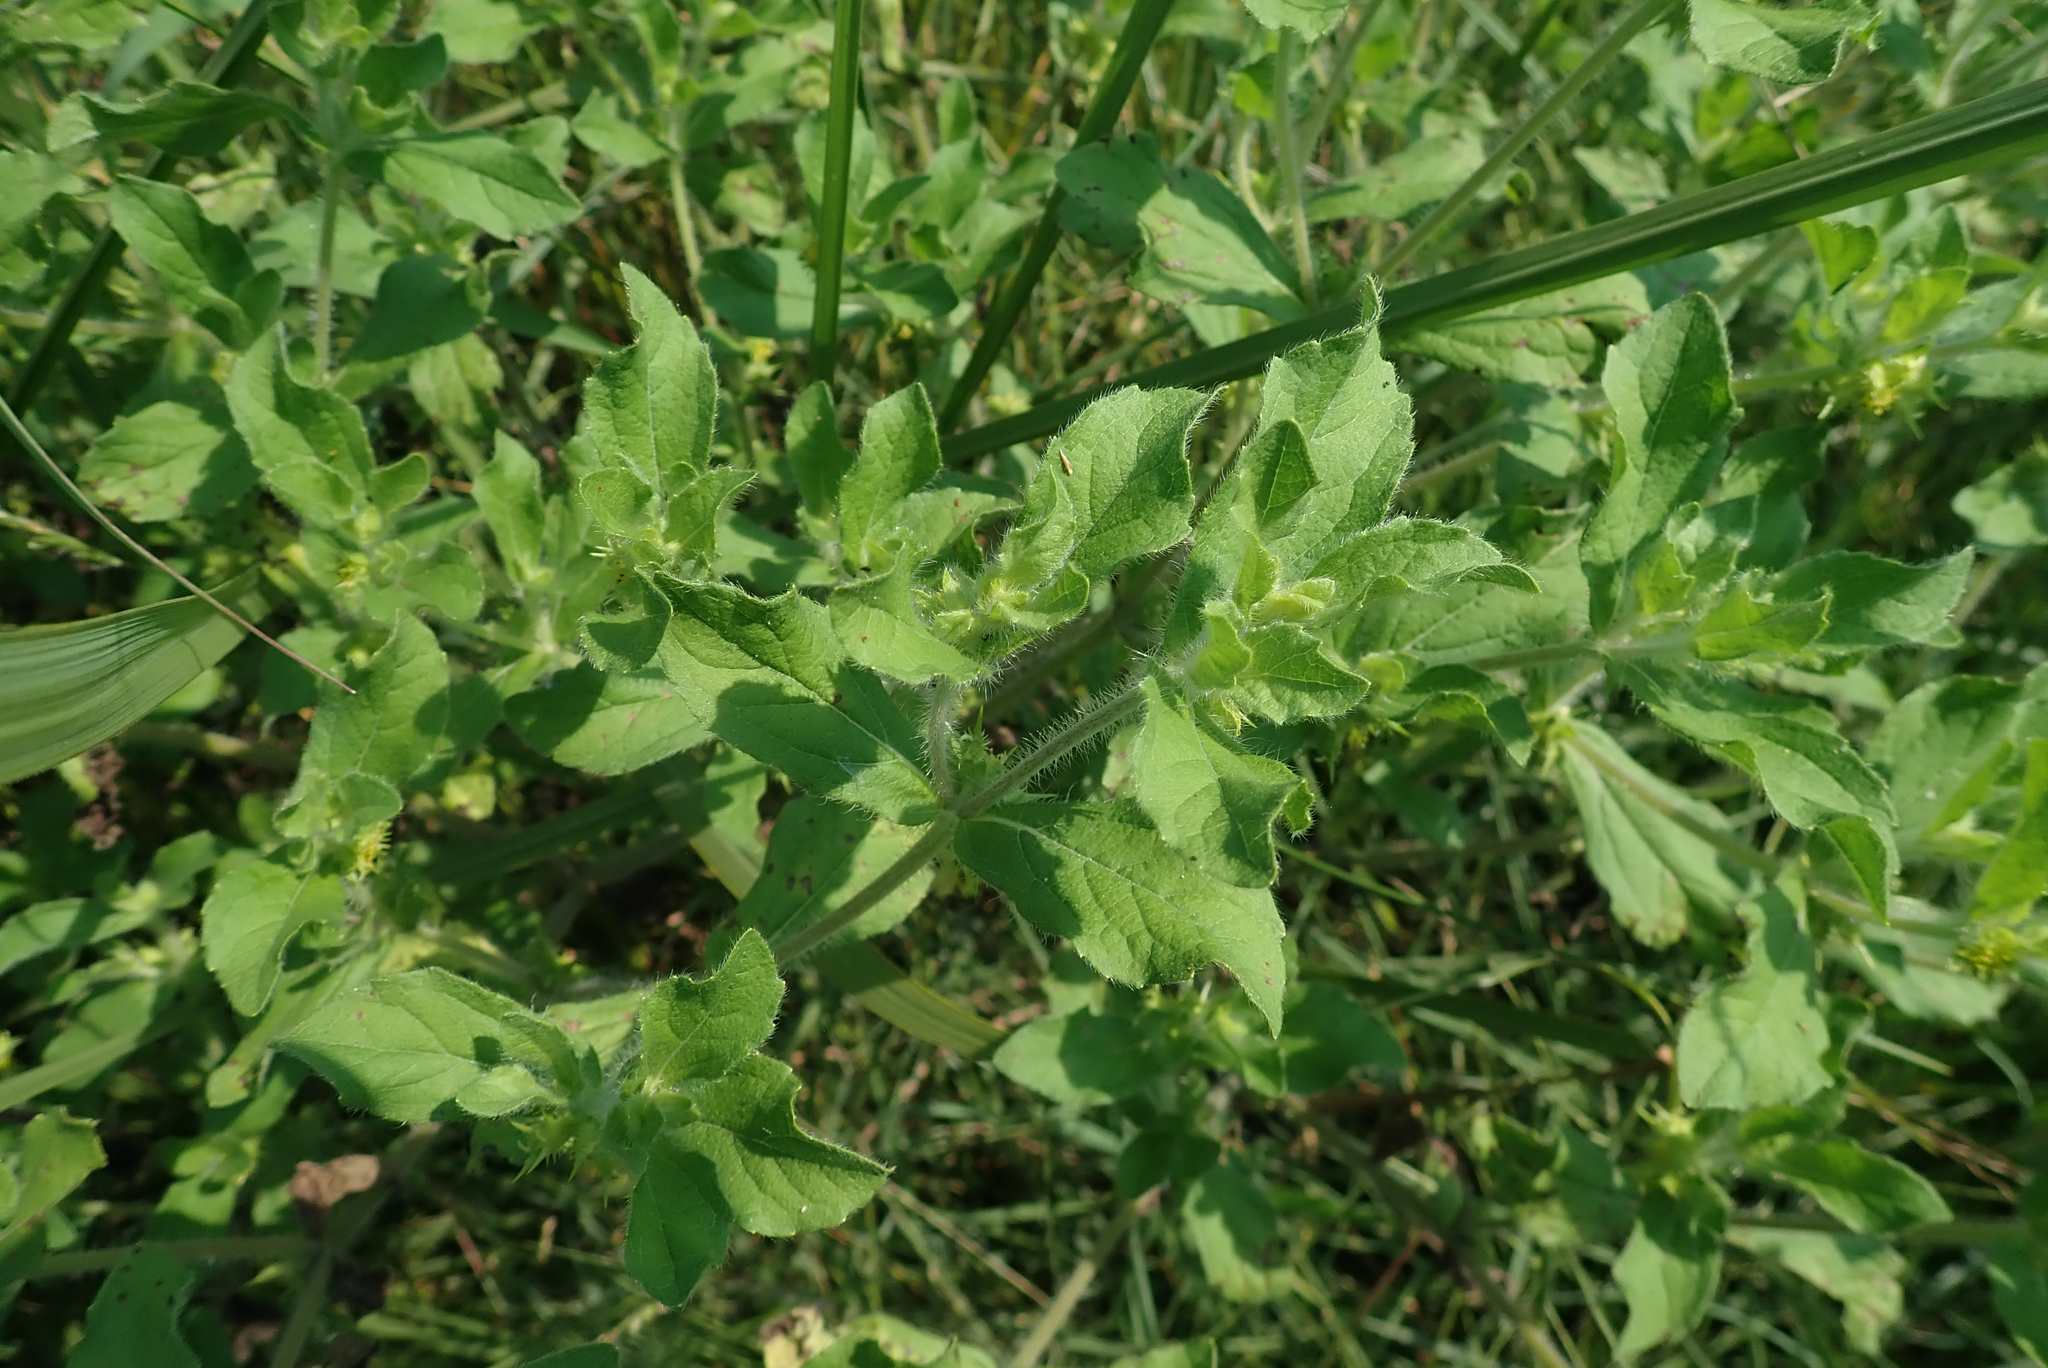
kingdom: Plantae
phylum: Tracheophyta
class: Magnoliopsida
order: Asterales
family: Asteraceae
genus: Acanthospermum
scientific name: Acanthospermum hispidum
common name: Hispid starbur
